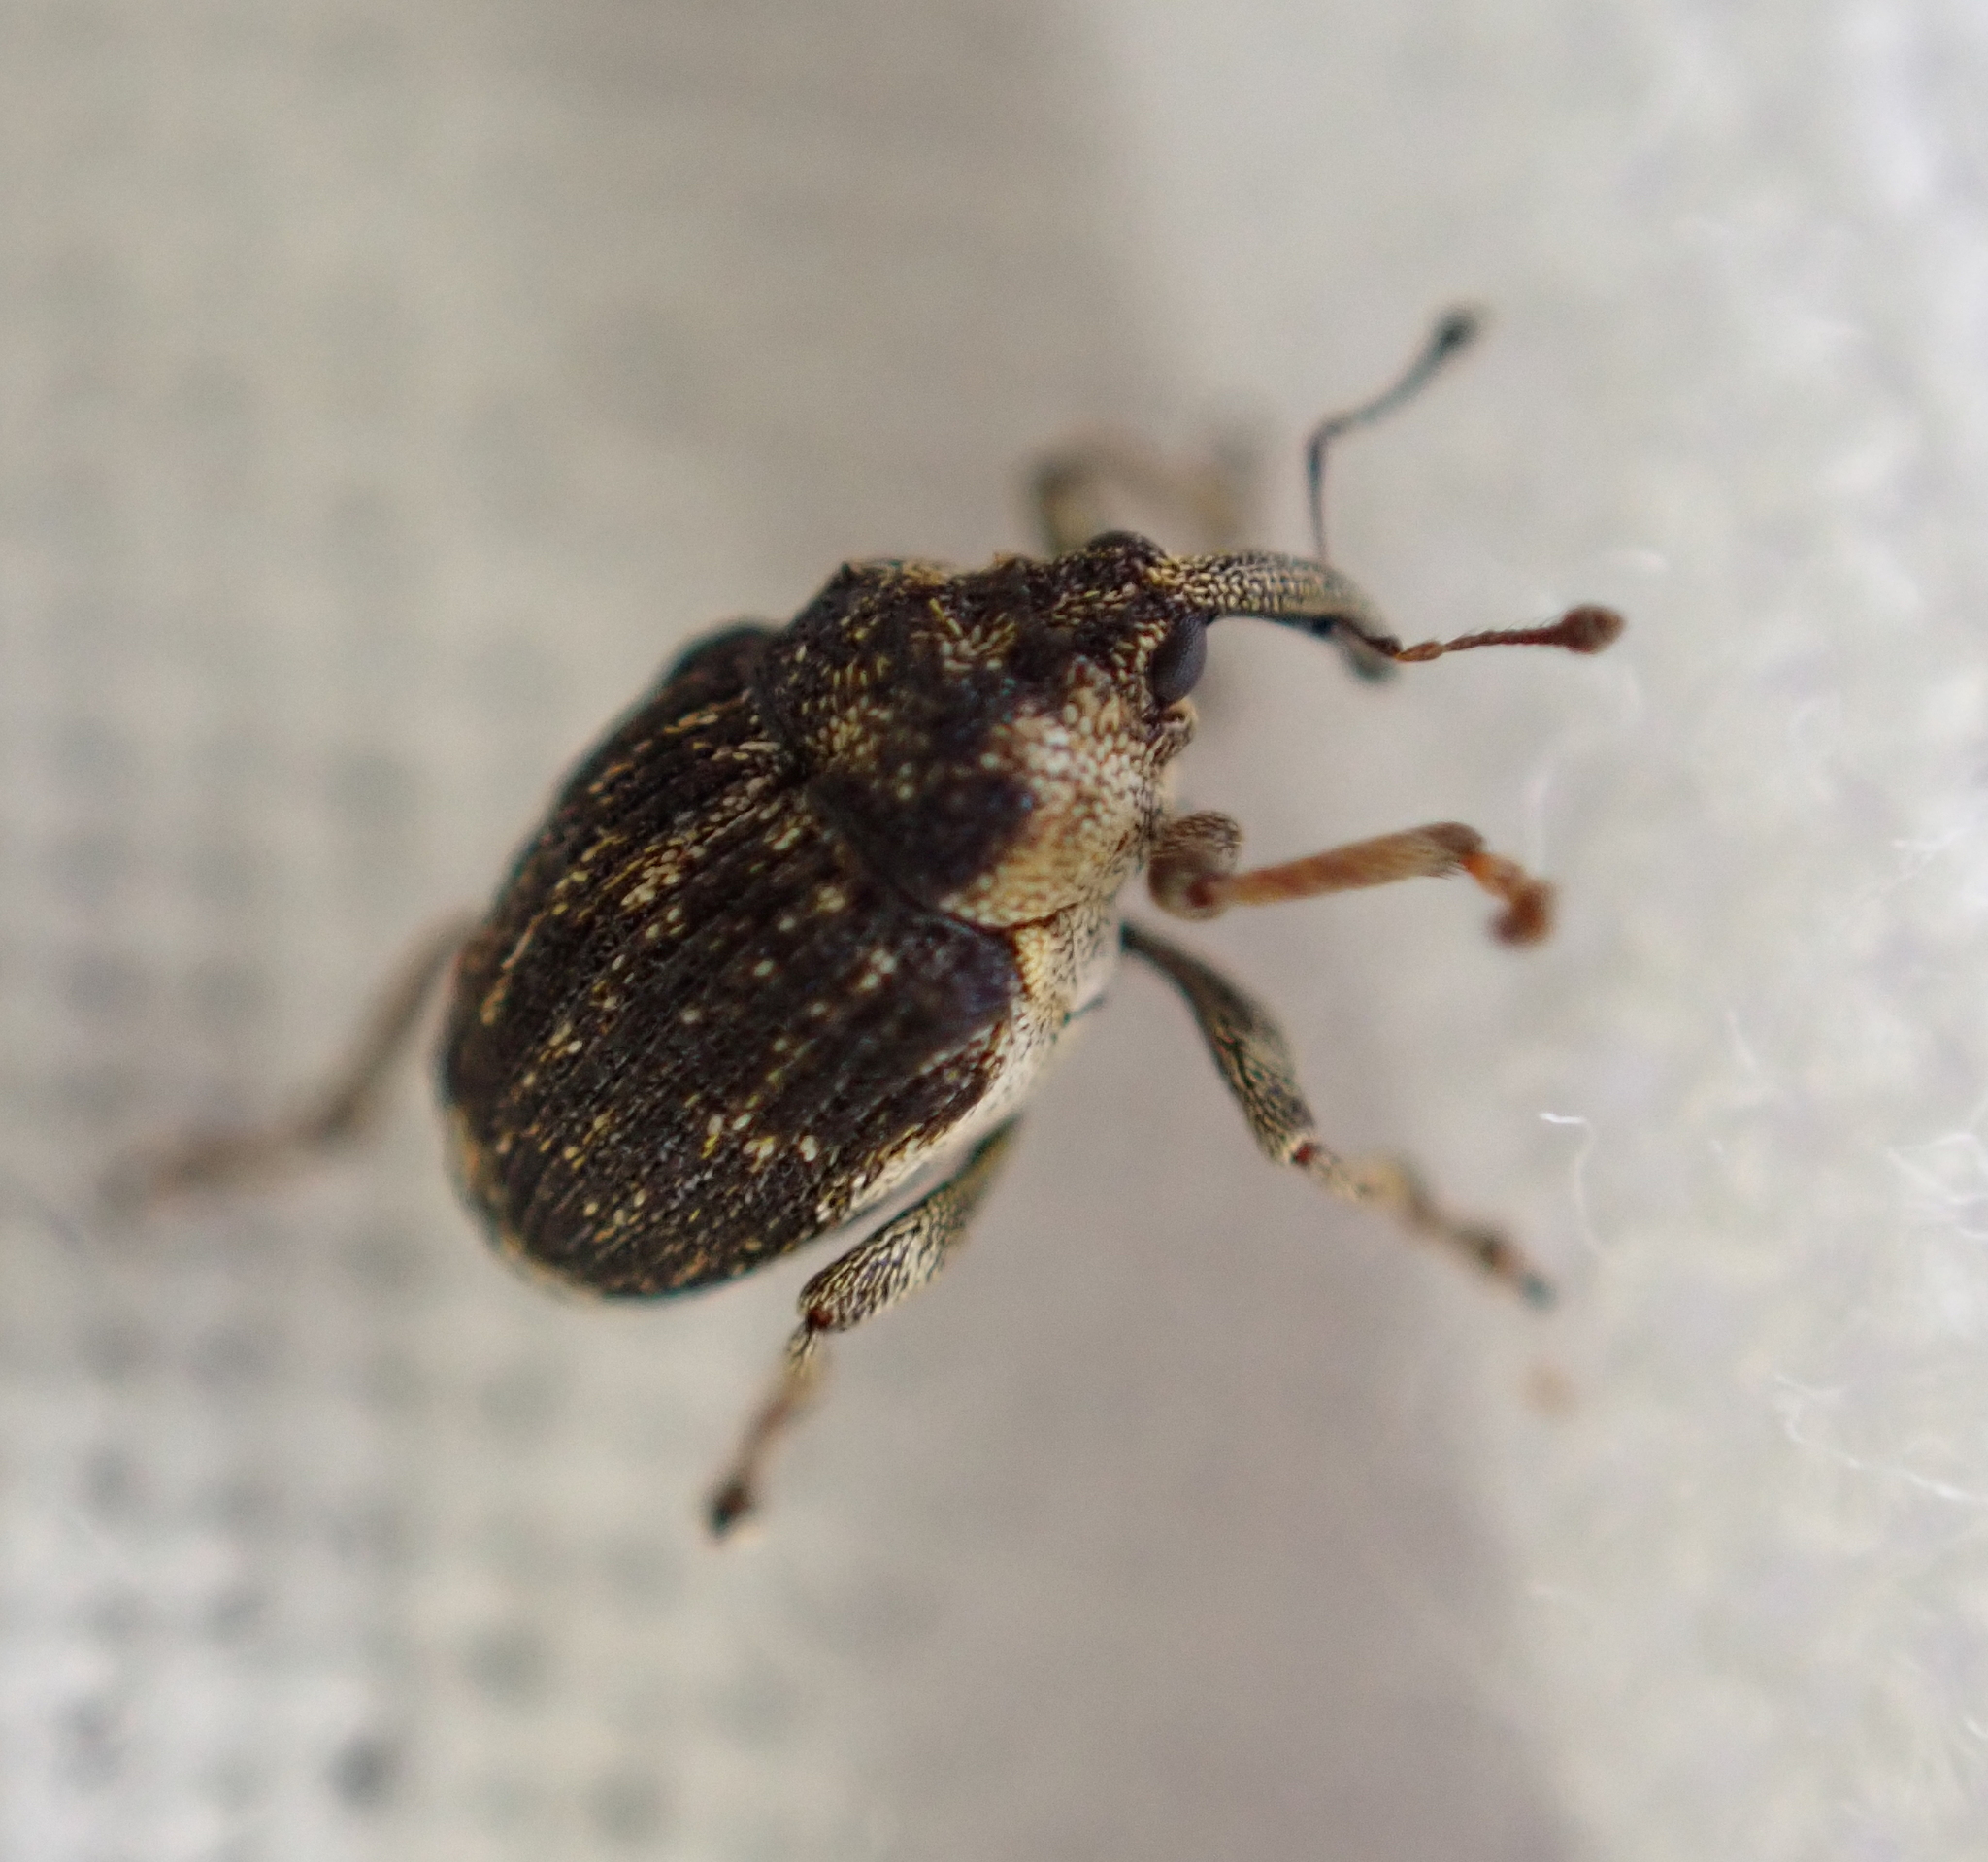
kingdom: Animalia
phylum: Arthropoda
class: Insecta
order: Coleoptera
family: Curculionidae
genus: Nedyus
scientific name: Nedyus quadrimaculatus
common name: Small nettle weevil
